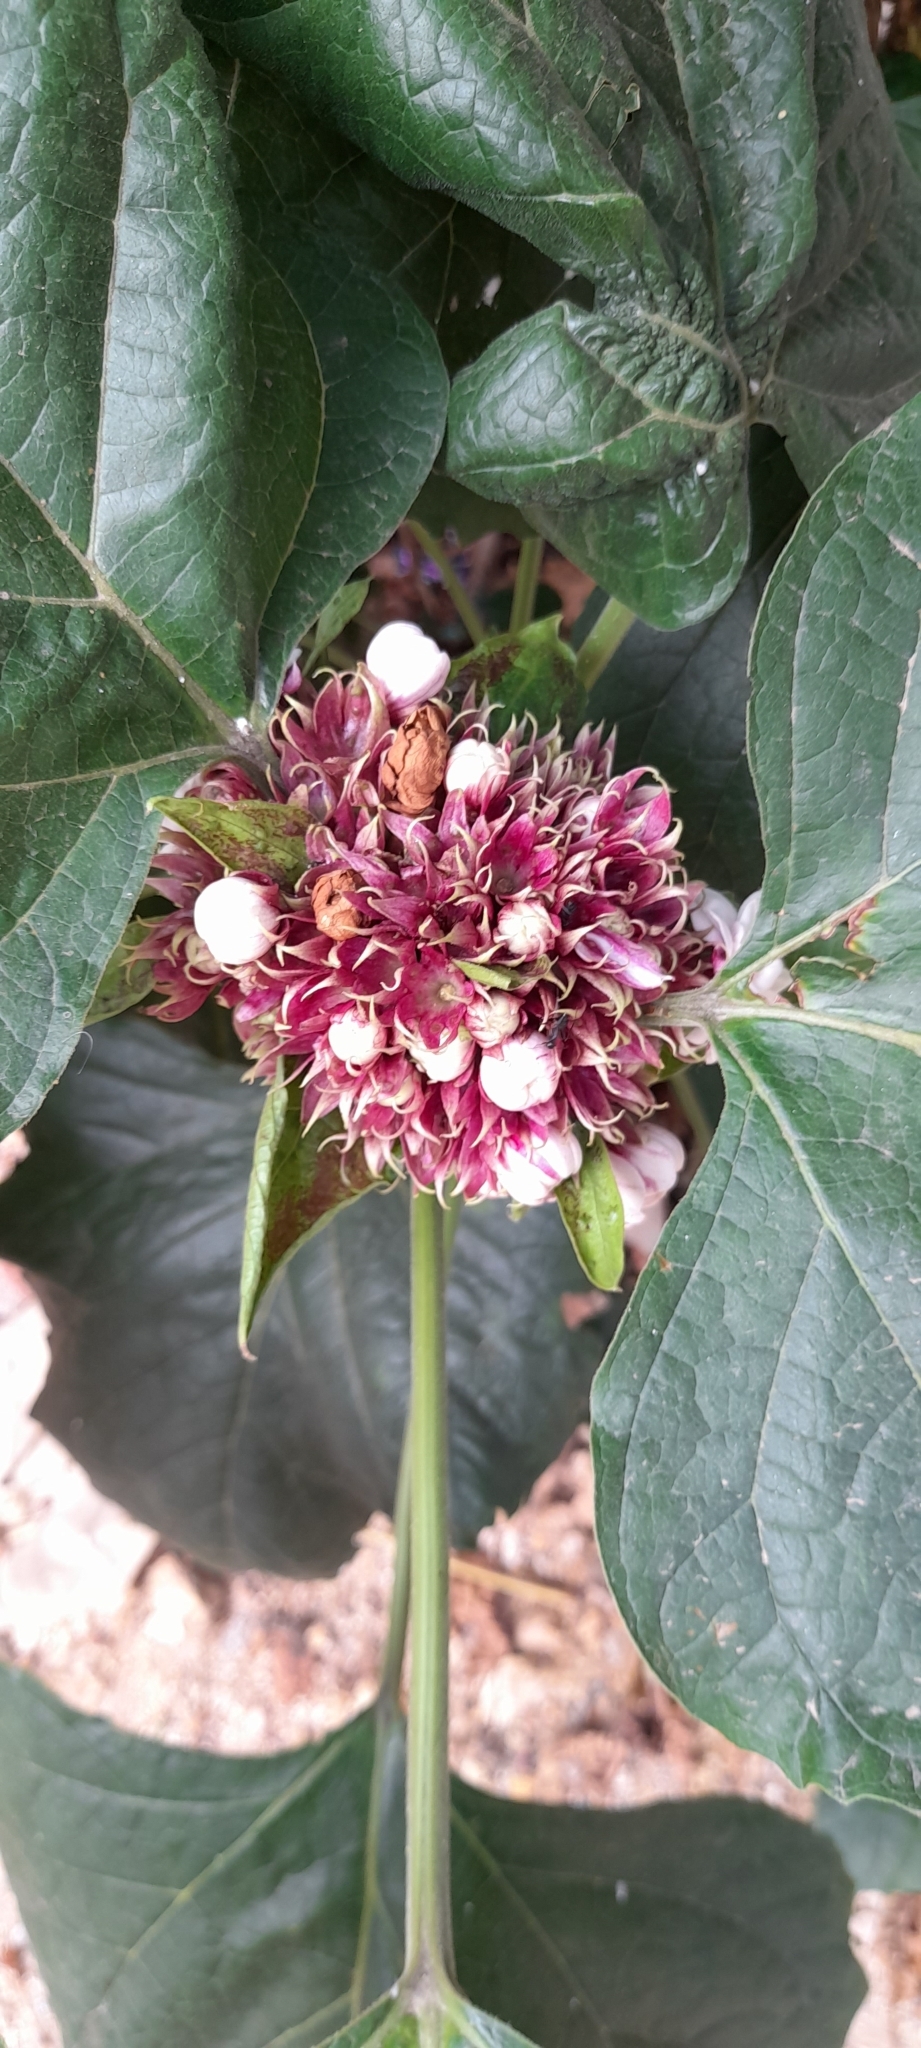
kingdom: Plantae
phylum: Tracheophyta
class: Magnoliopsida
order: Lamiales
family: Lamiaceae
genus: Clerodendrum
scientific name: Clerodendrum chinense
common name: Stickbush
